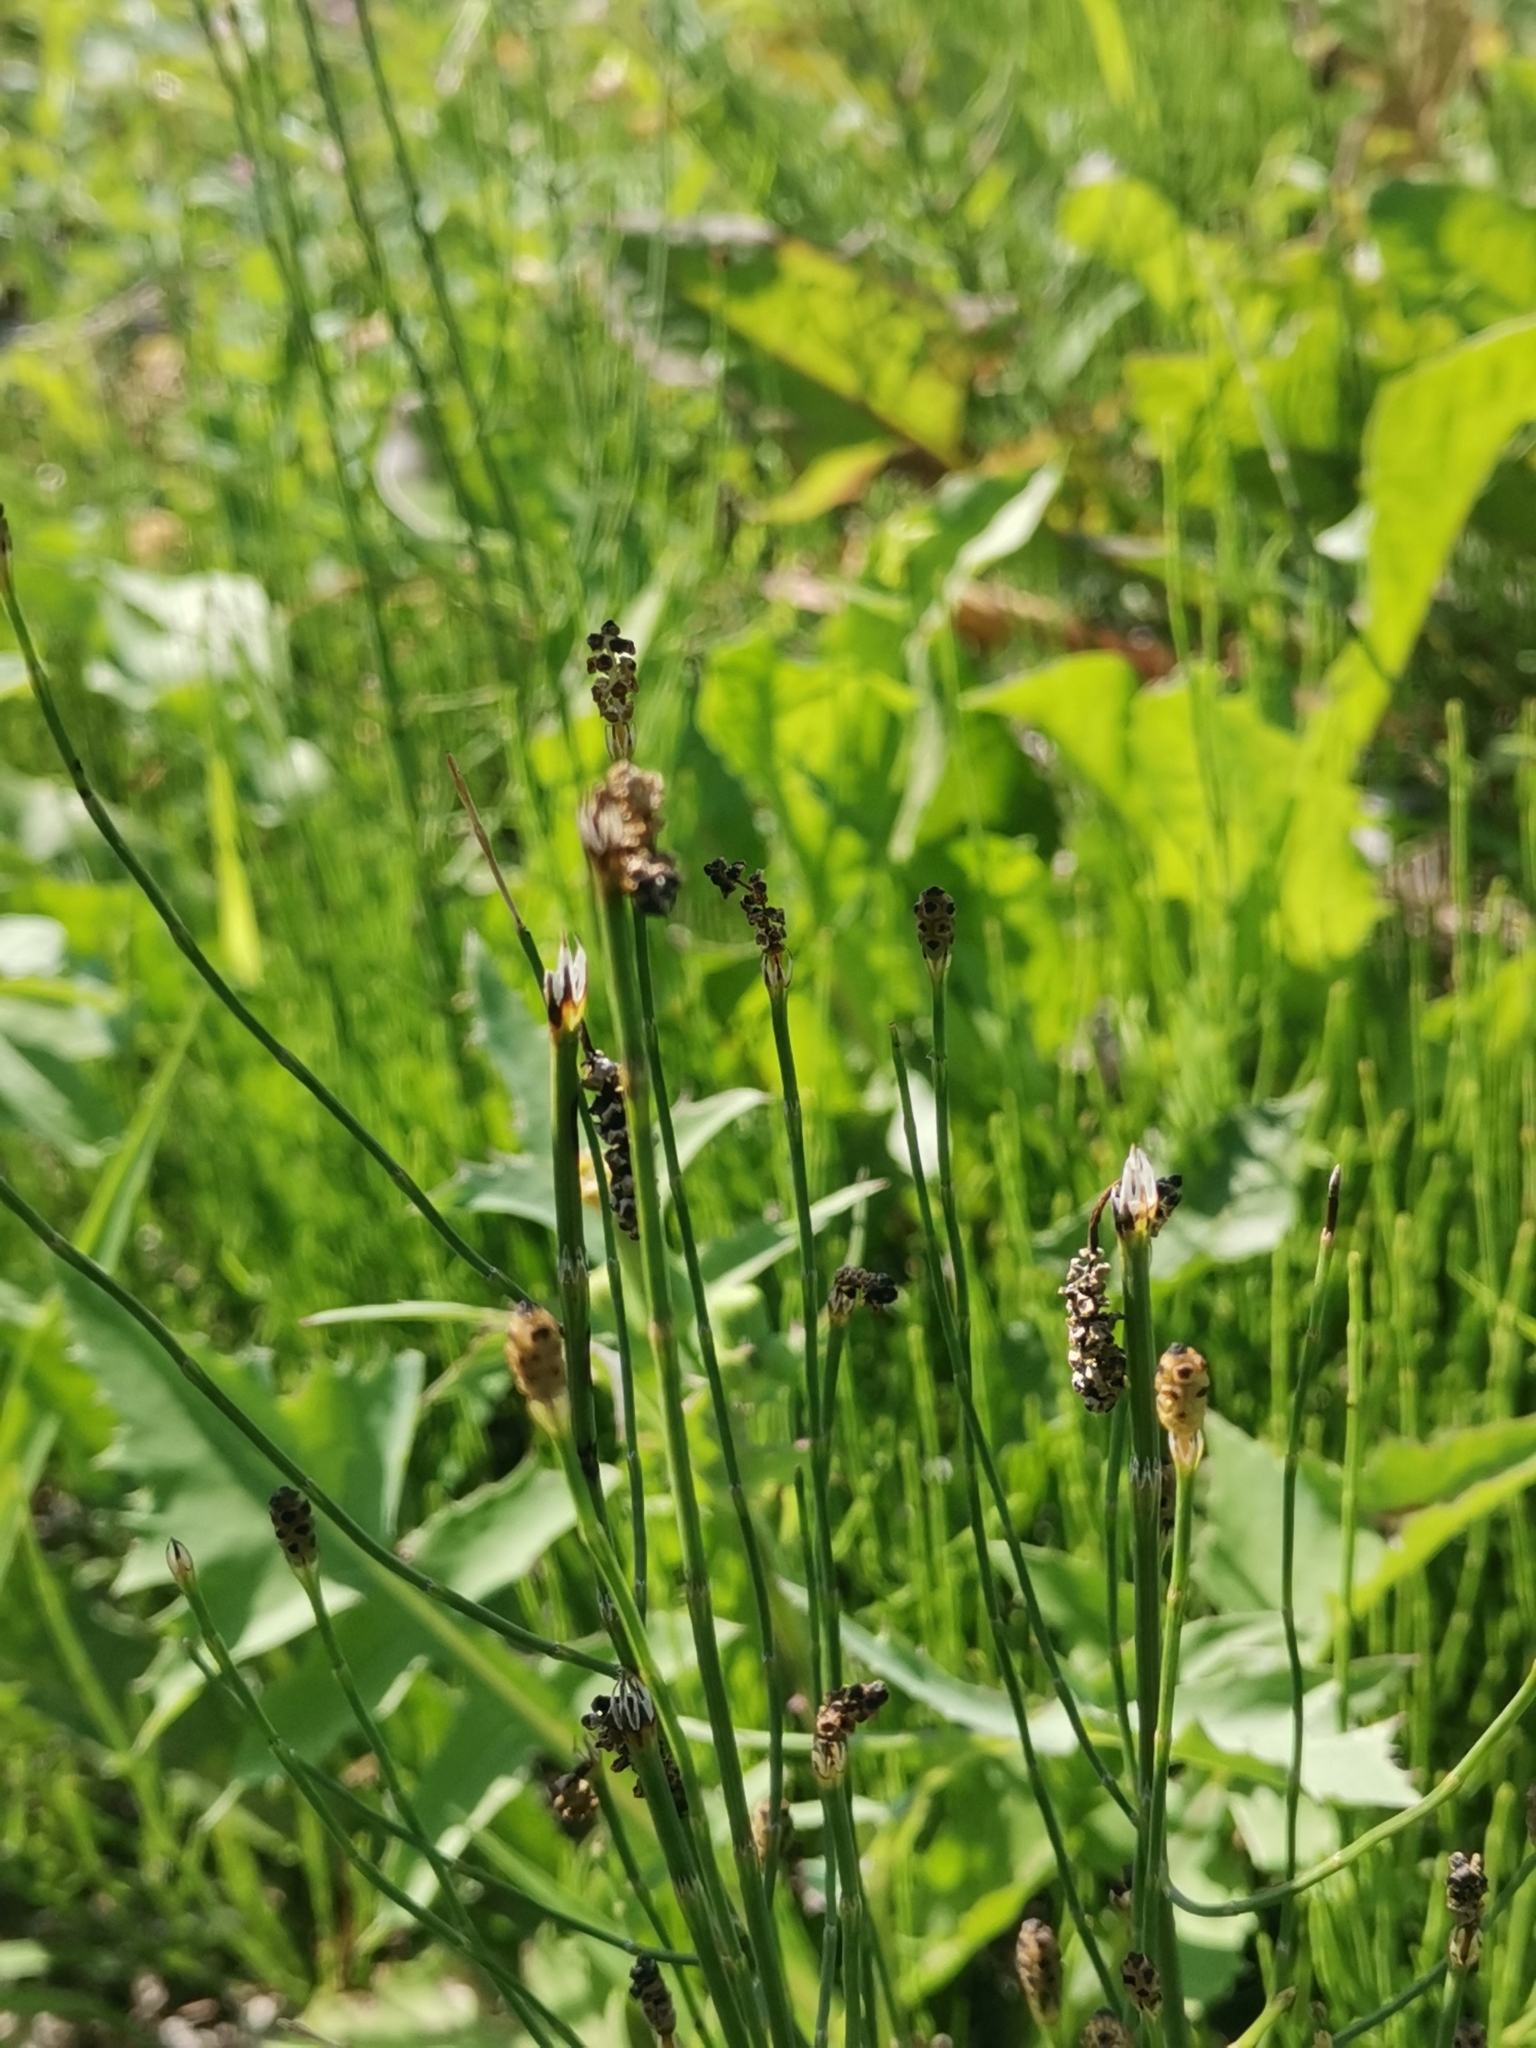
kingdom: Plantae
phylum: Tracheophyta
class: Polypodiopsida
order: Equisetales
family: Equisetaceae
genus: Equisetum
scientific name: Equisetum ramosissimum
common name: Branched horsetail
